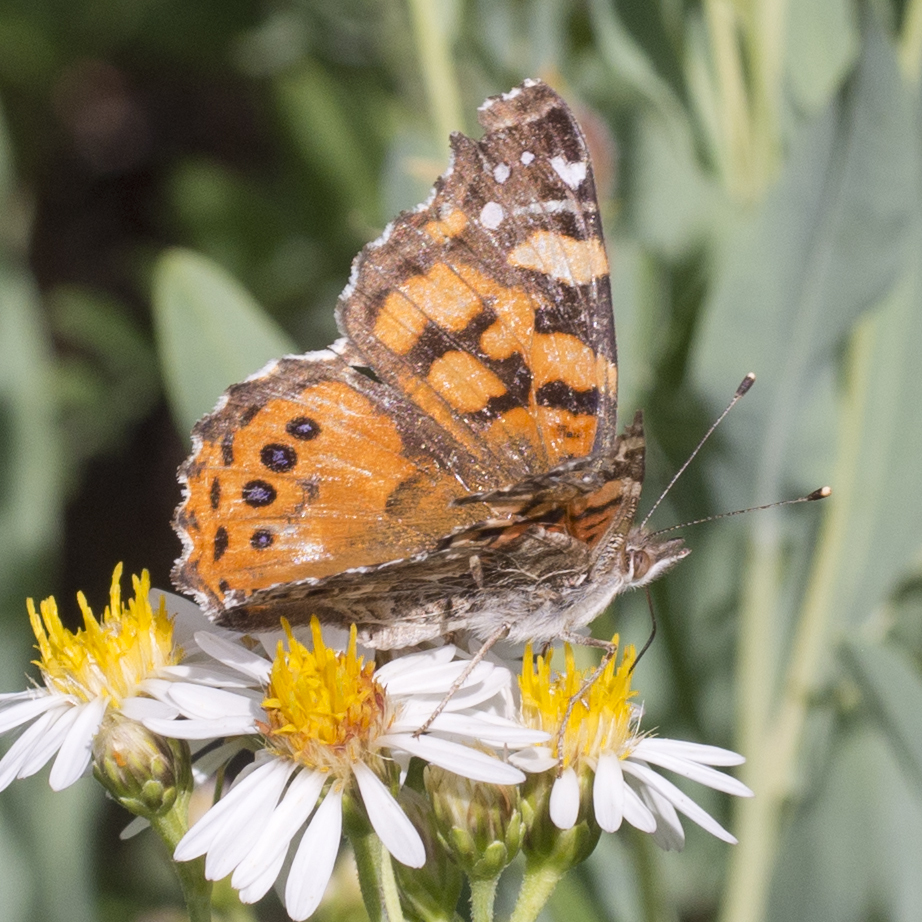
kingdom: Animalia
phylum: Arthropoda
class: Insecta
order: Lepidoptera
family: Nymphalidae
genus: Vanessa
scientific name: Vanessa annabella
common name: West coast lady
